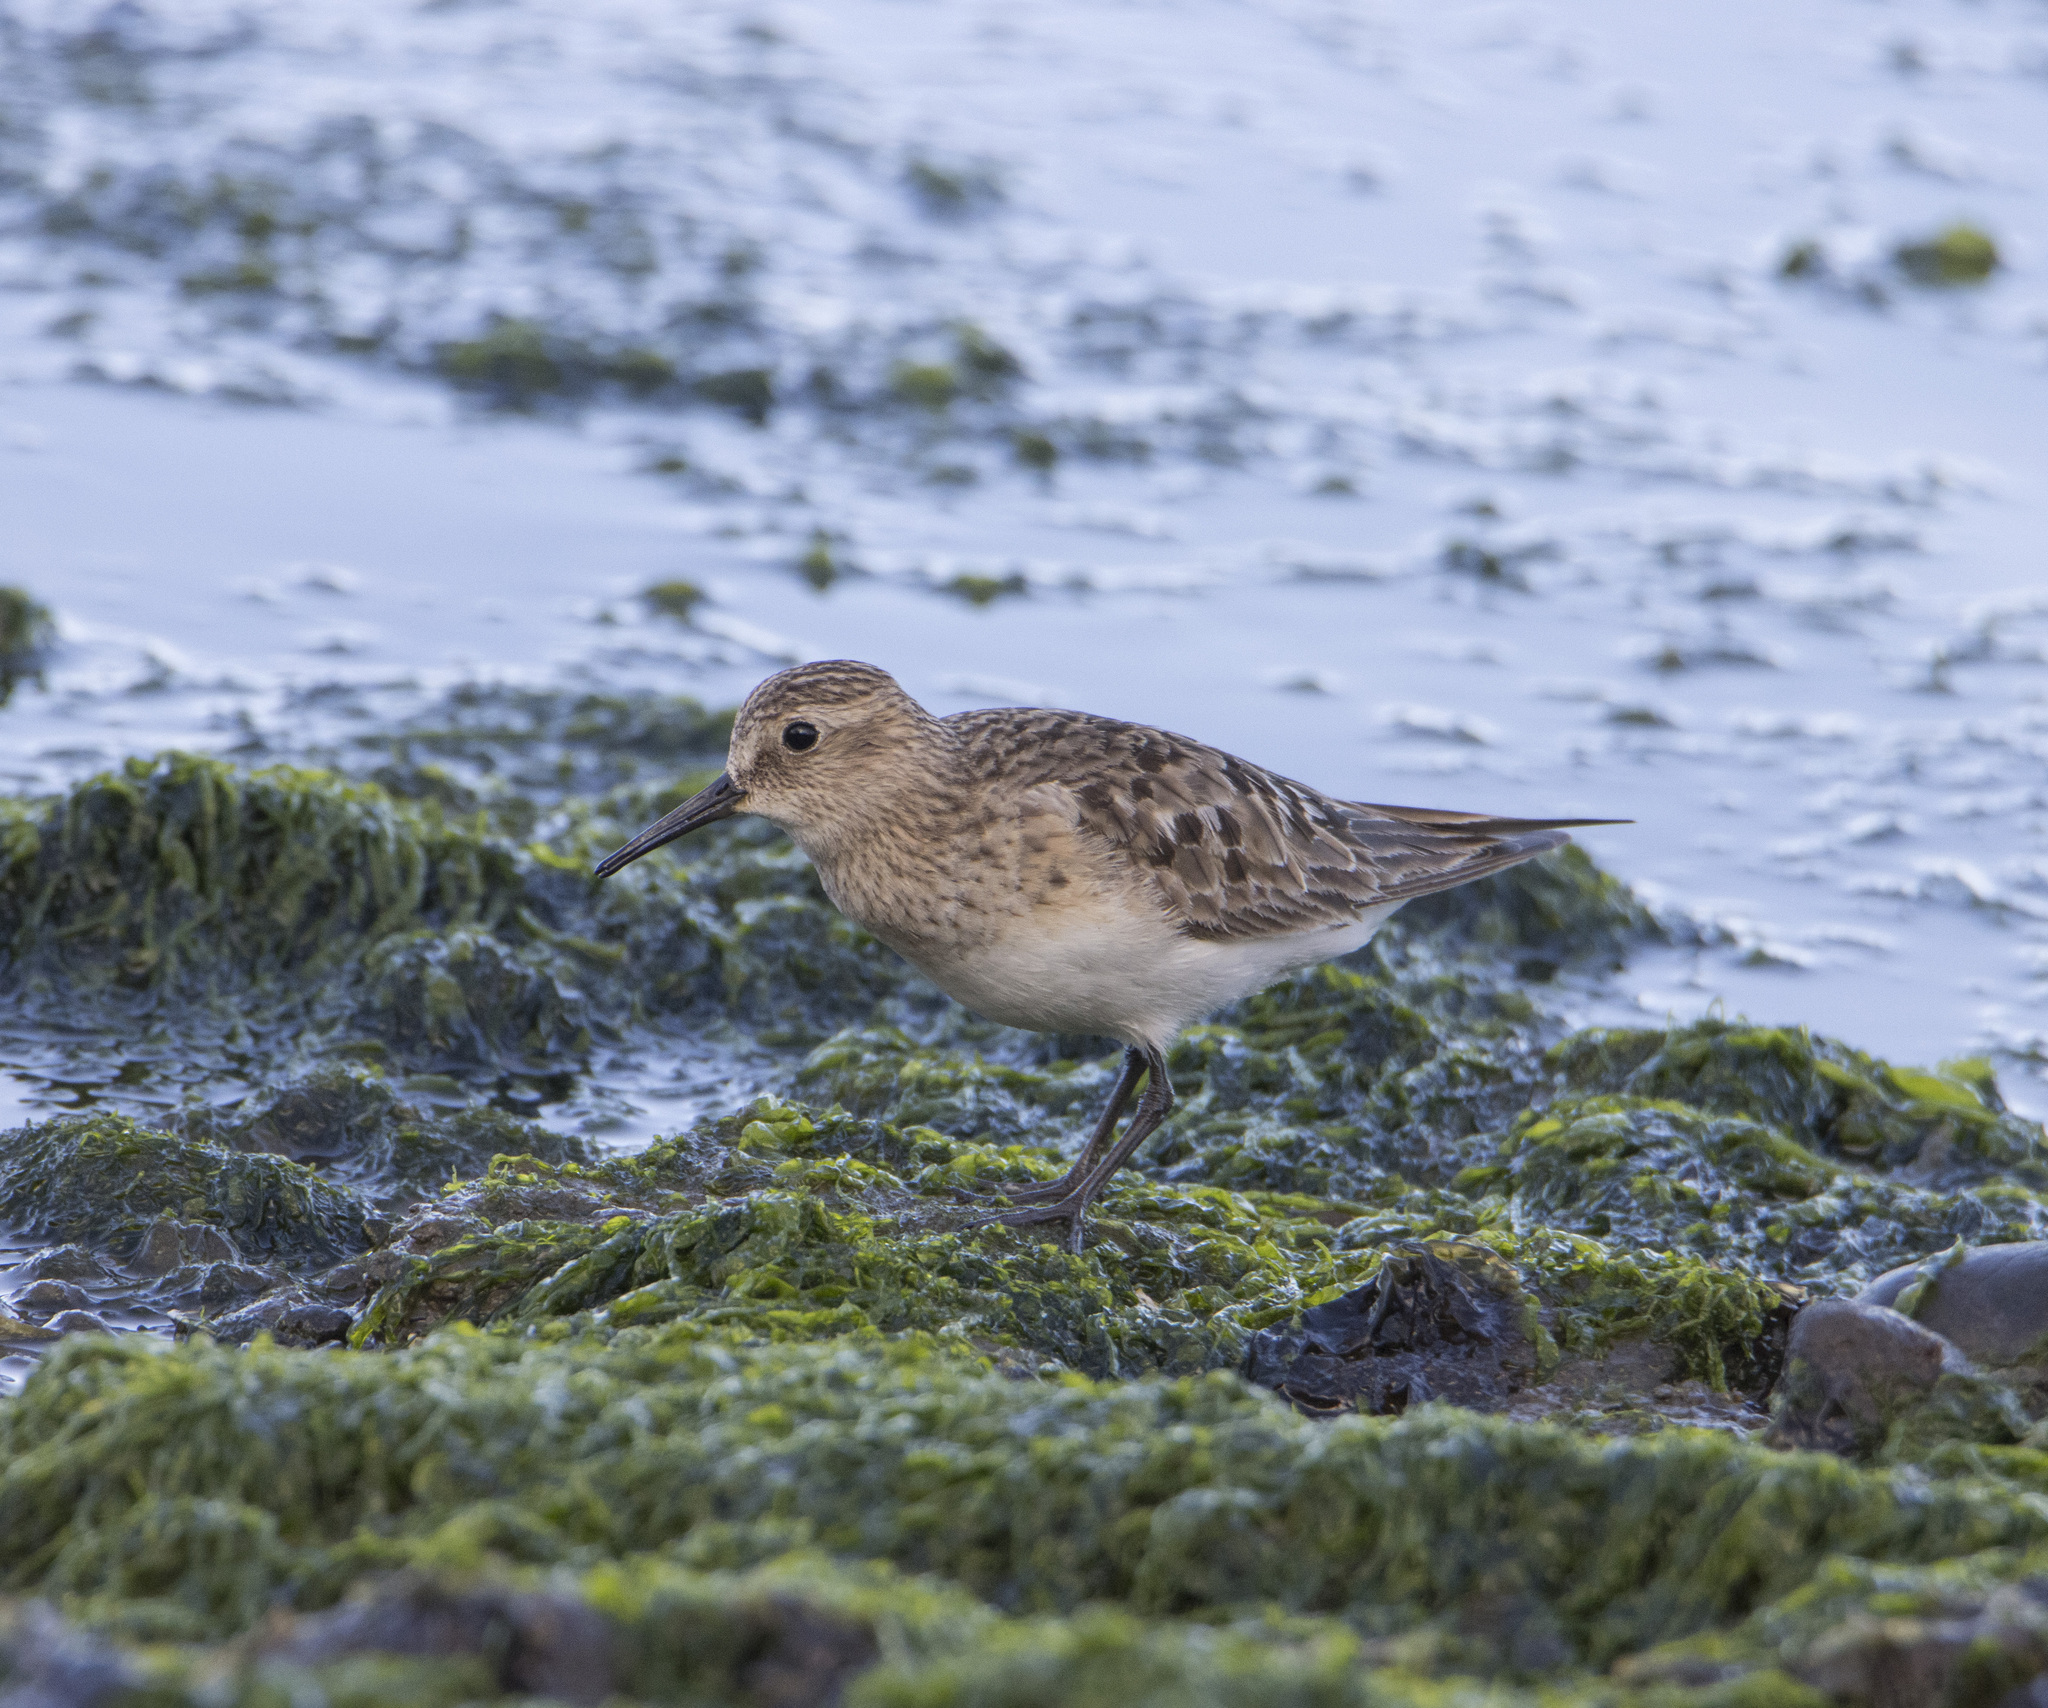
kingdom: Animalia
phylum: Chordata
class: Aves
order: Charadriiformes
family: Scolopacidae
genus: Calidris
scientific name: Calidris bairdii
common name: Baird's sandpiper
